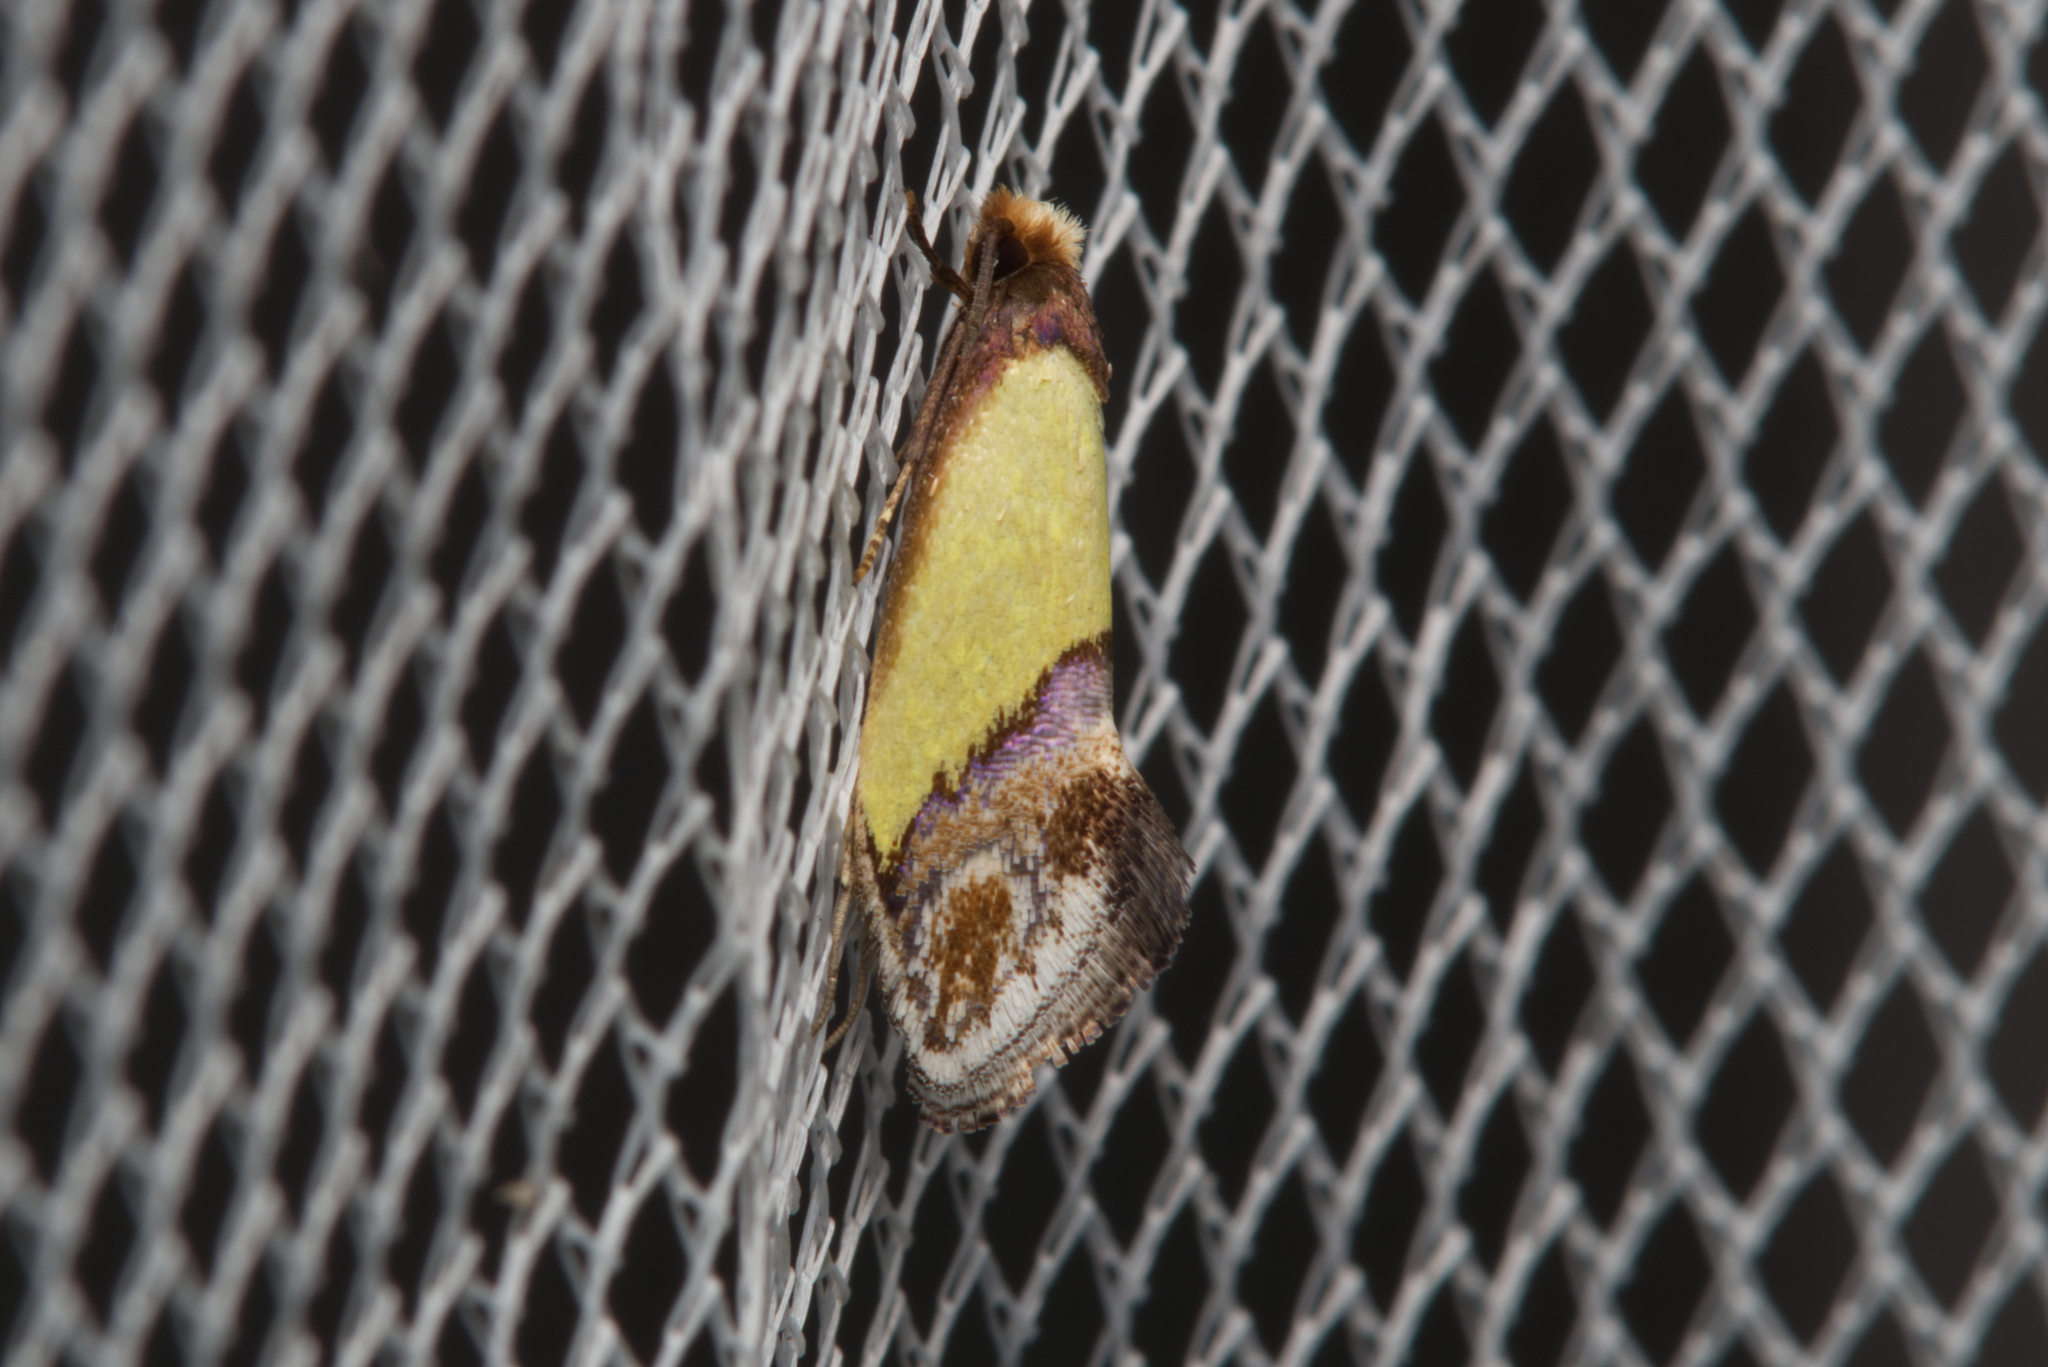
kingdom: Animalia
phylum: Arthropoda
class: Insecta
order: Lepidoptera
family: Tineidae
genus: Edosa
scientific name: Edosa xystidophora
